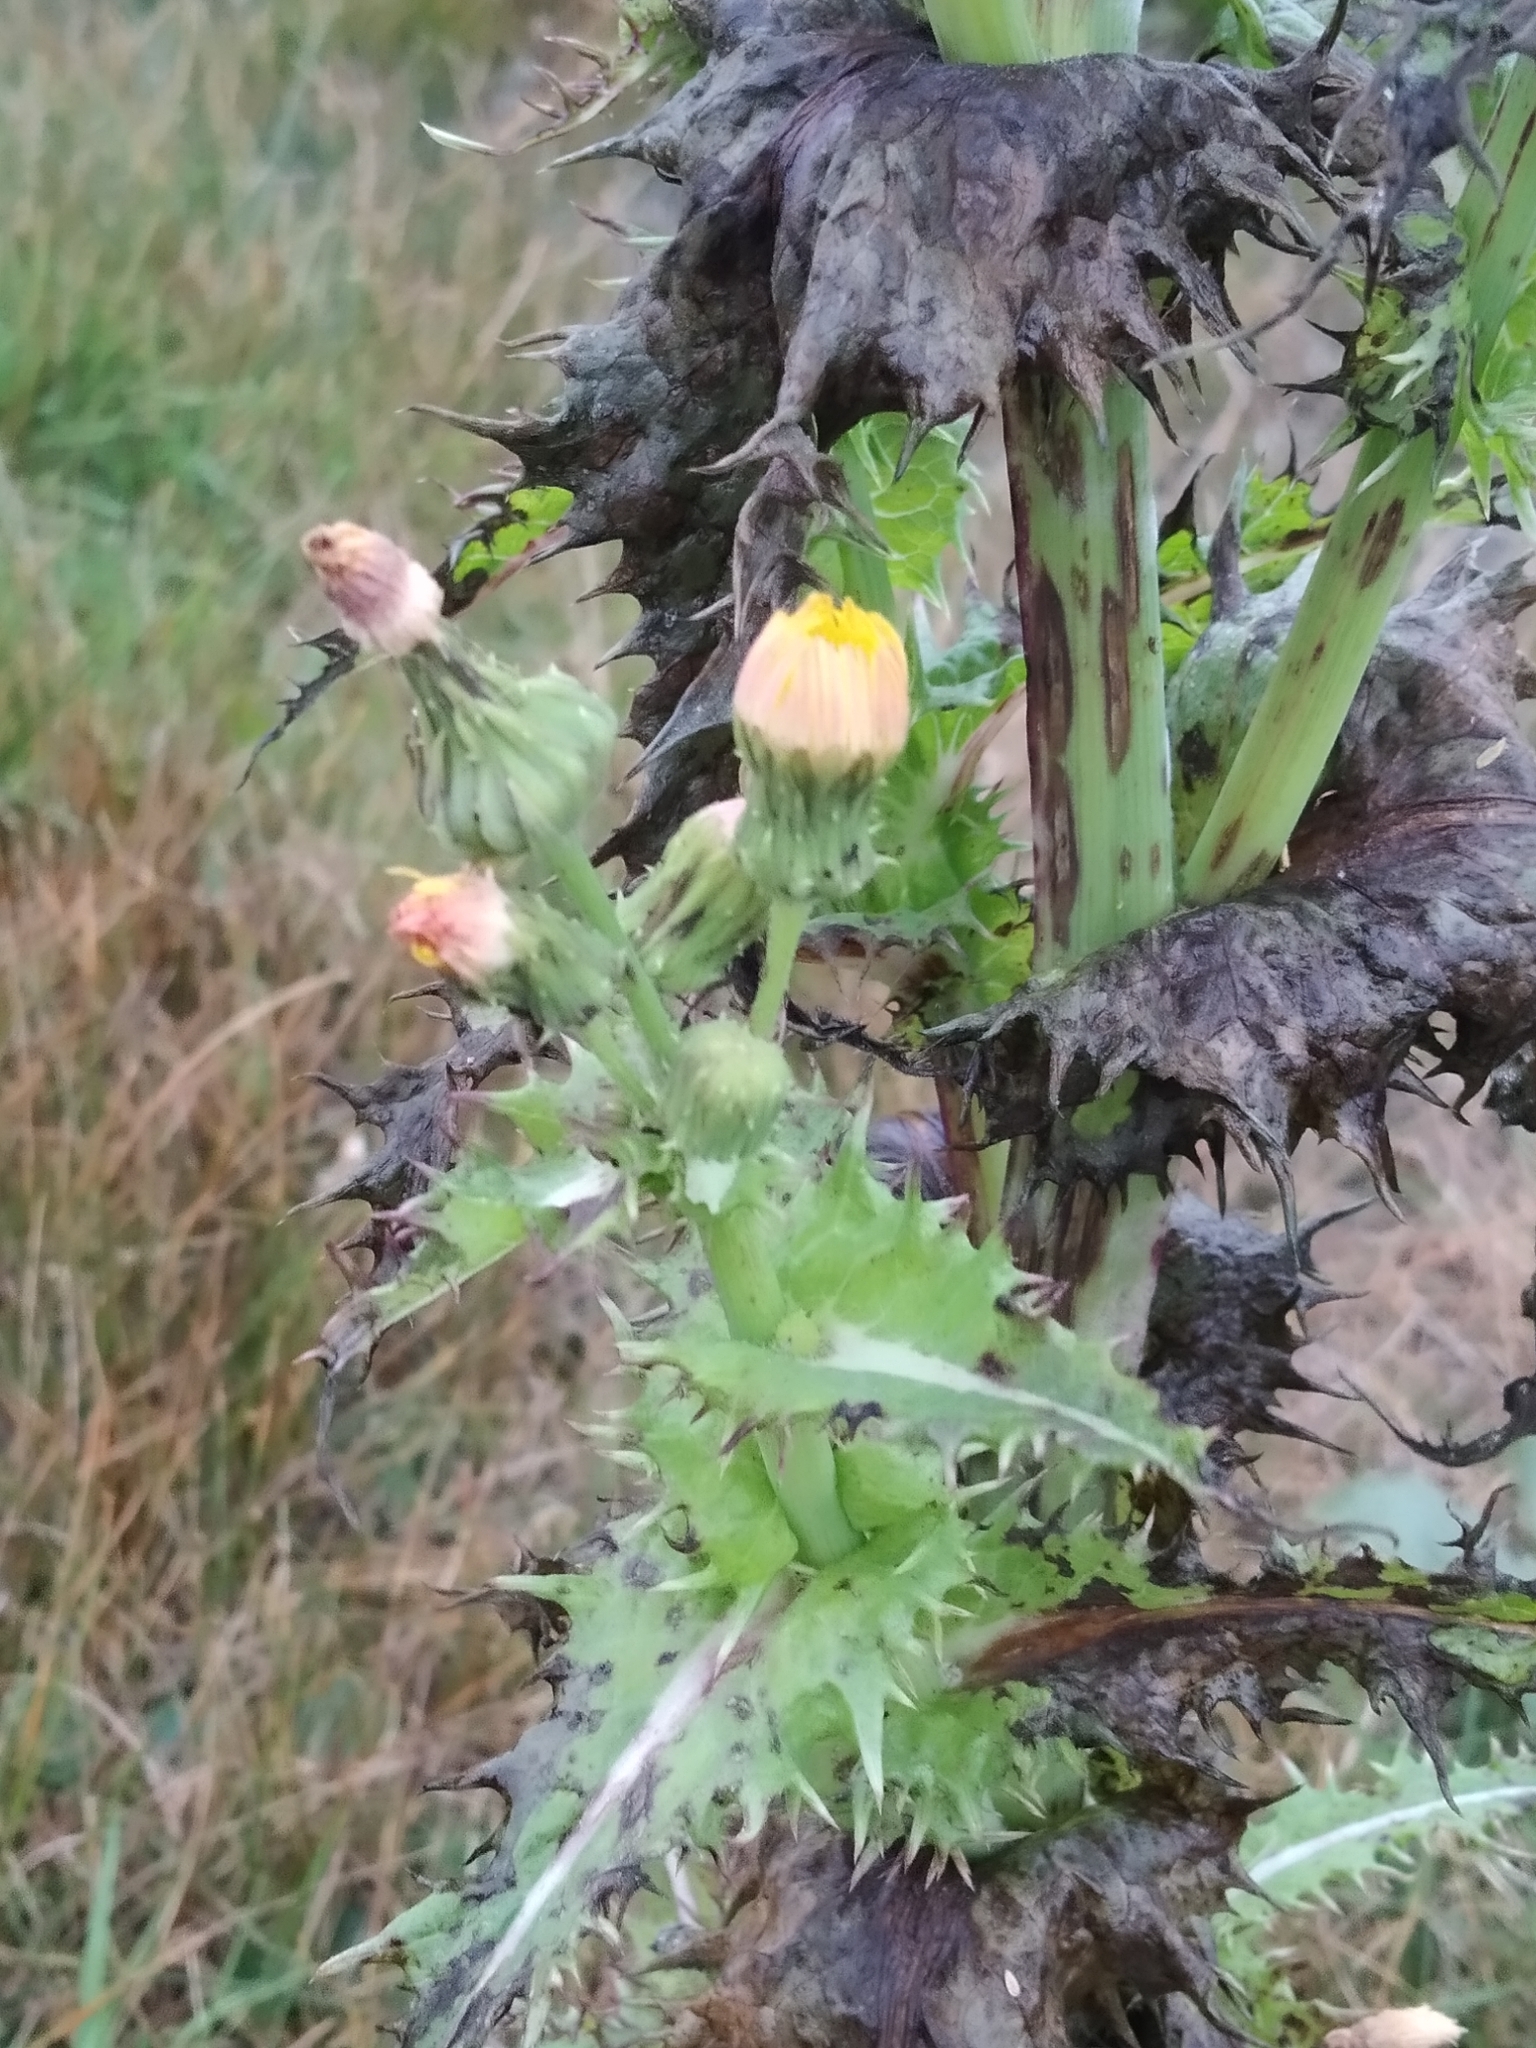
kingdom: Plantae
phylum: Tracheophyta
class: Magnoliopsida
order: Asterales
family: Asteraceae
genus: Sonchus
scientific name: Sonchus asper
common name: Prickly sow-thistle
